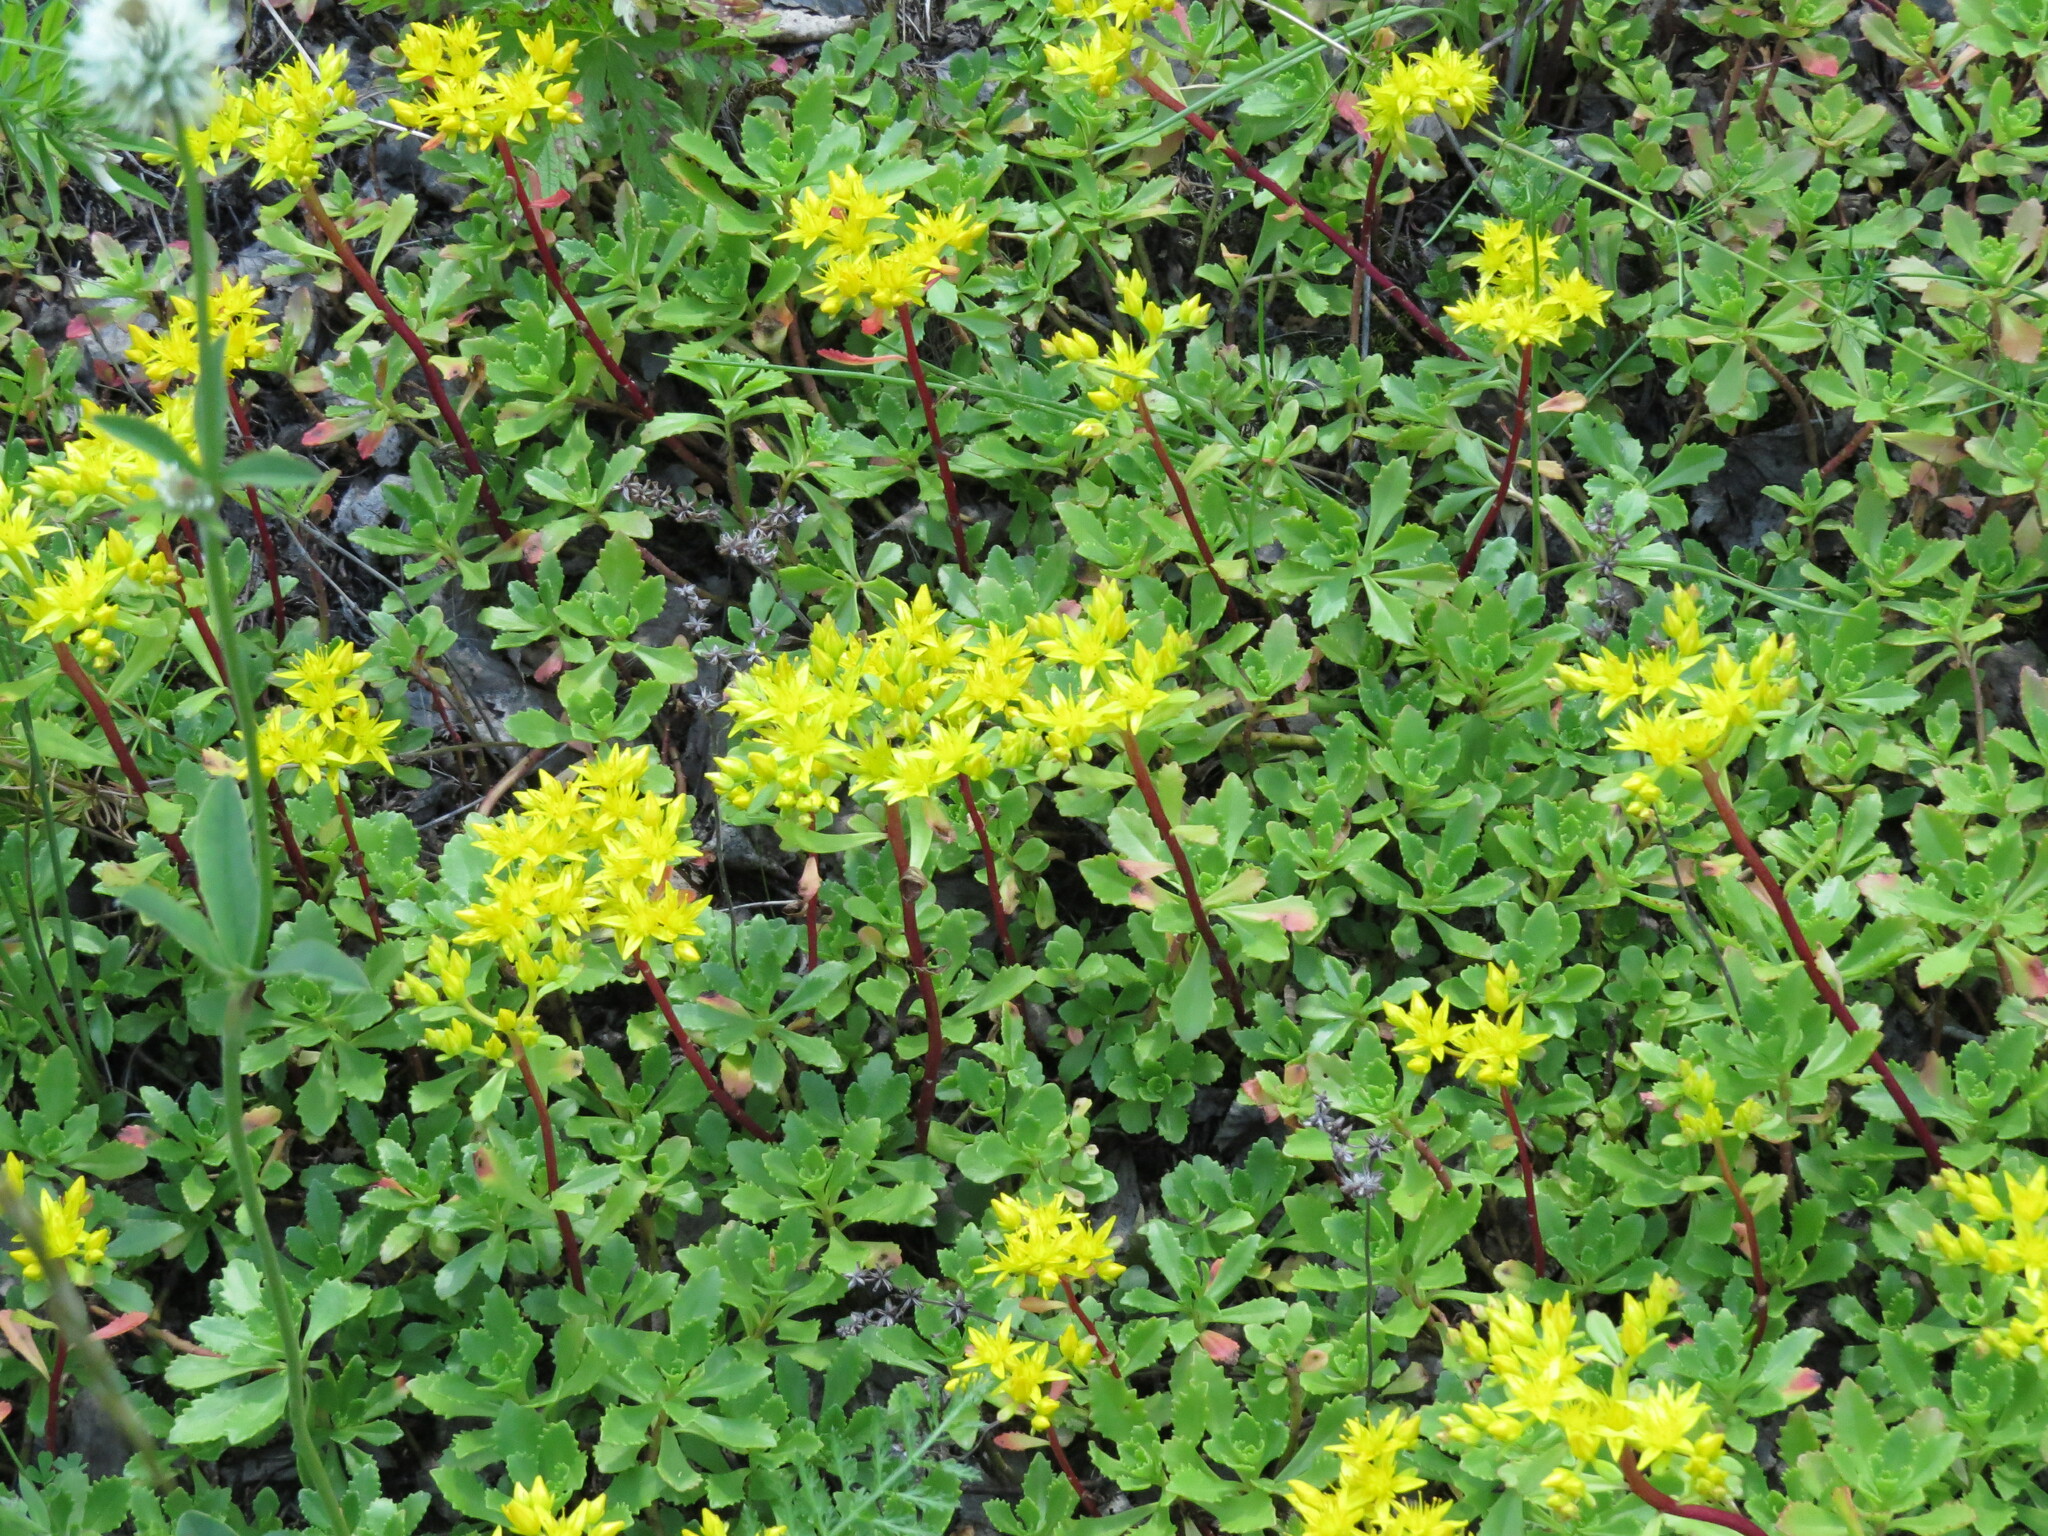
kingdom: Plantae
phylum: Tracheophyta
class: Magnoliopsida
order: Saxifragales
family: Crassulaceae
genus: Phedimus
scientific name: Phedimus hybridus
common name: Hybrid stonecrop
